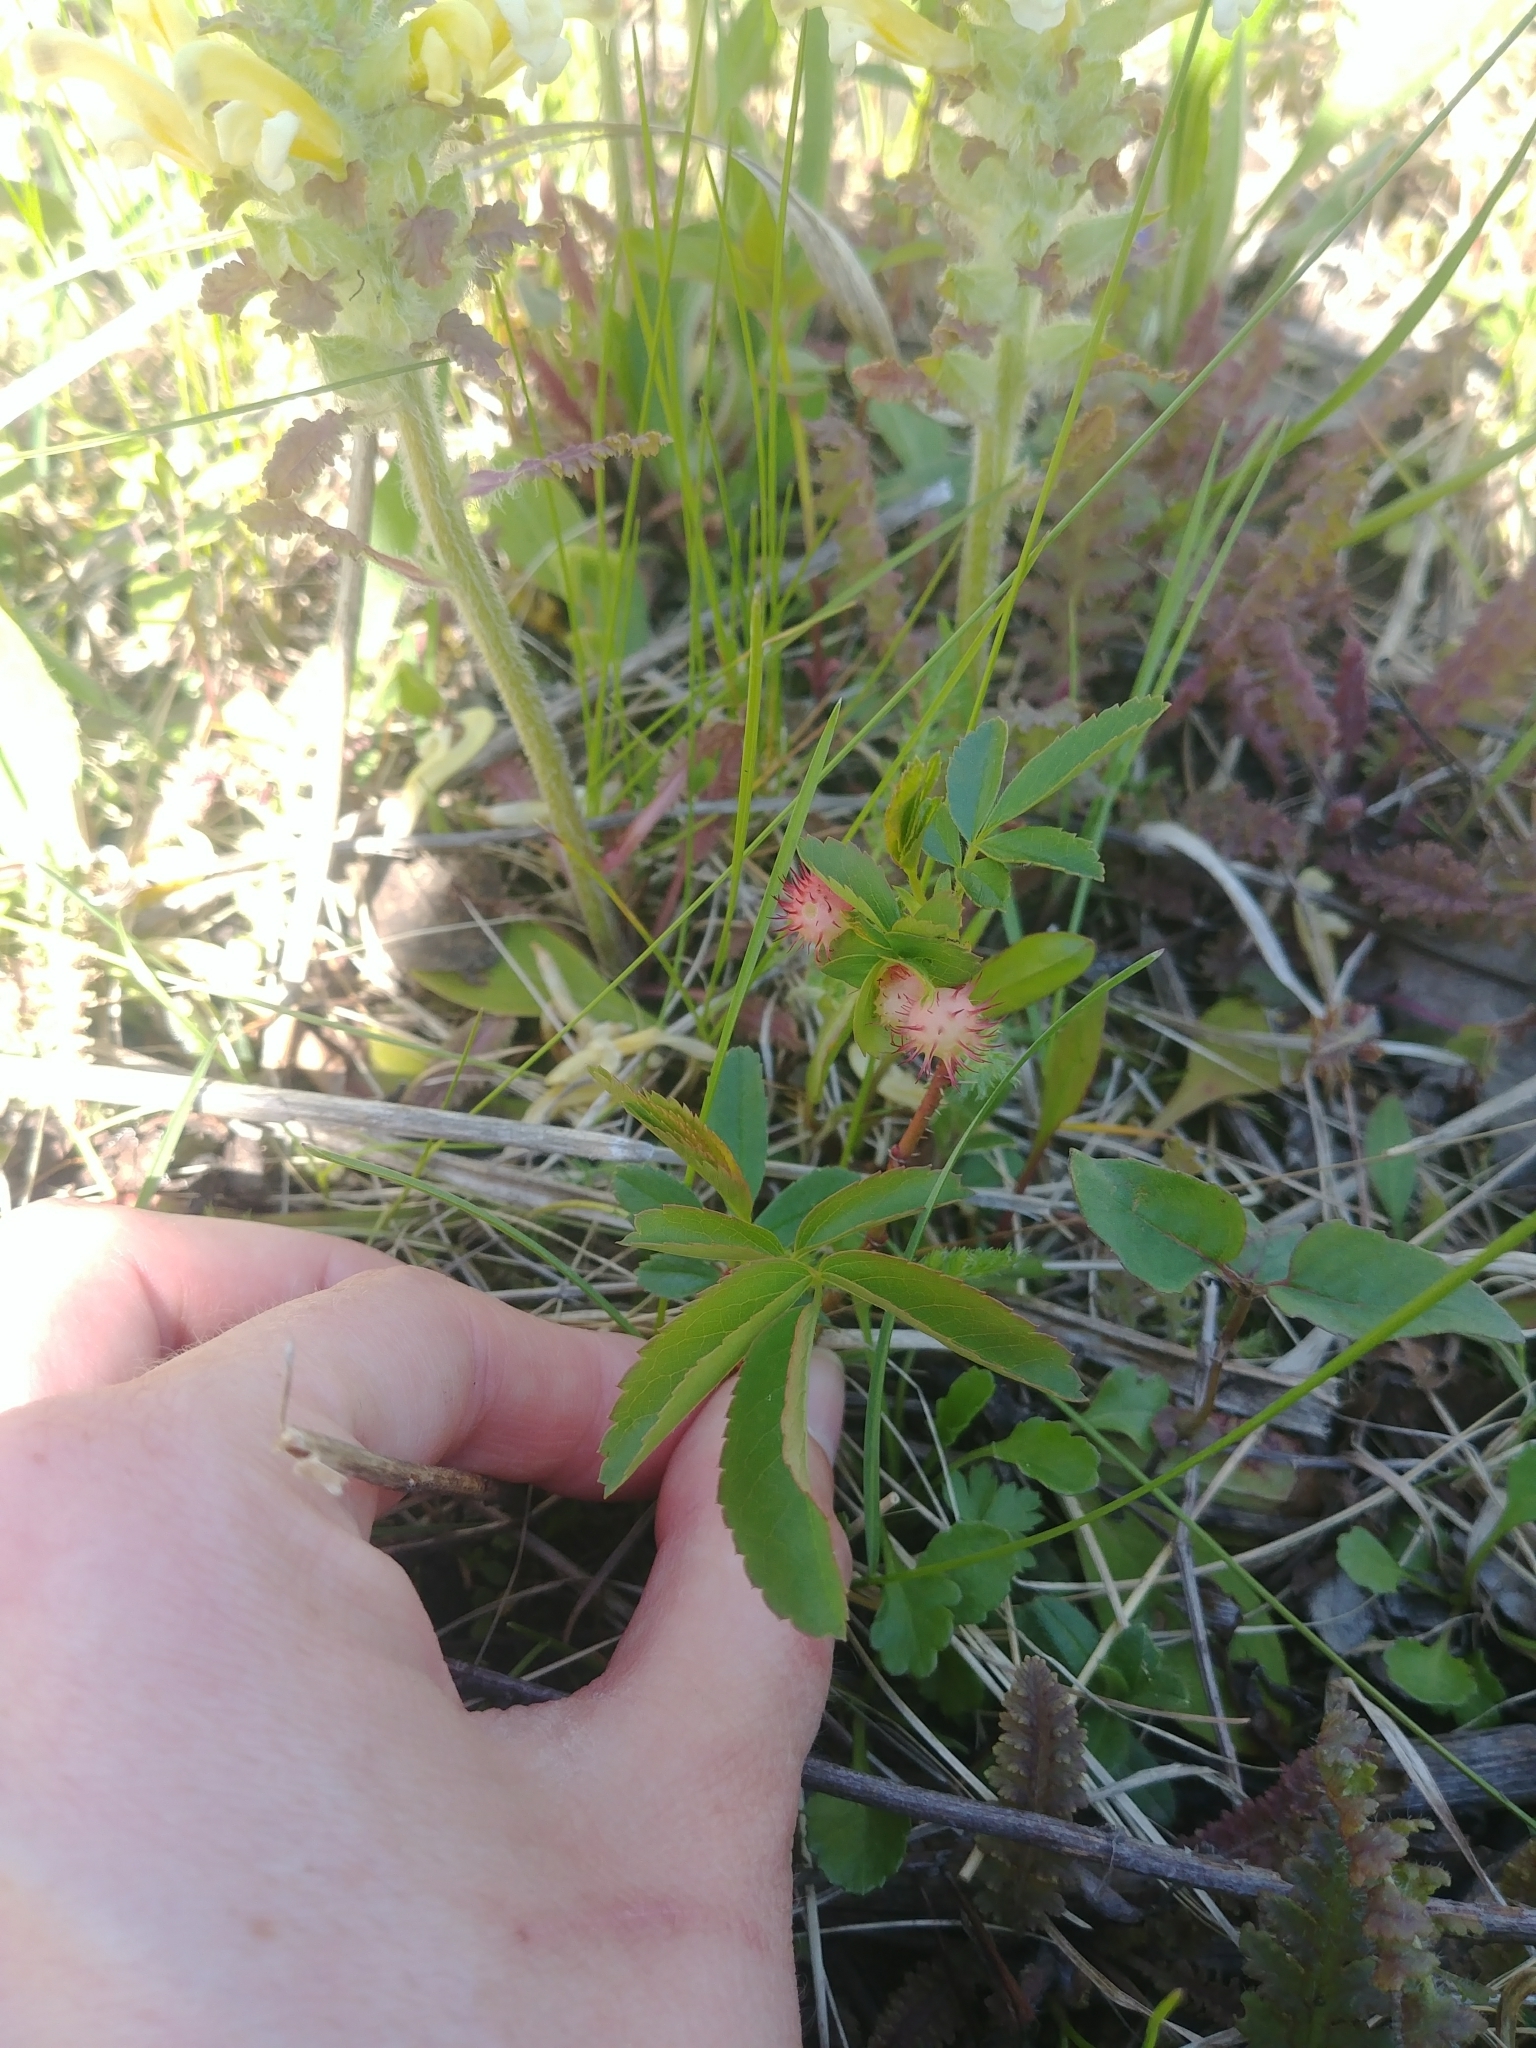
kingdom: Animalia
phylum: Arthropoda
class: Insecta
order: Hymenoptera
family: Cynipidae
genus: Diplolepis
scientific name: Diplolepis polita
